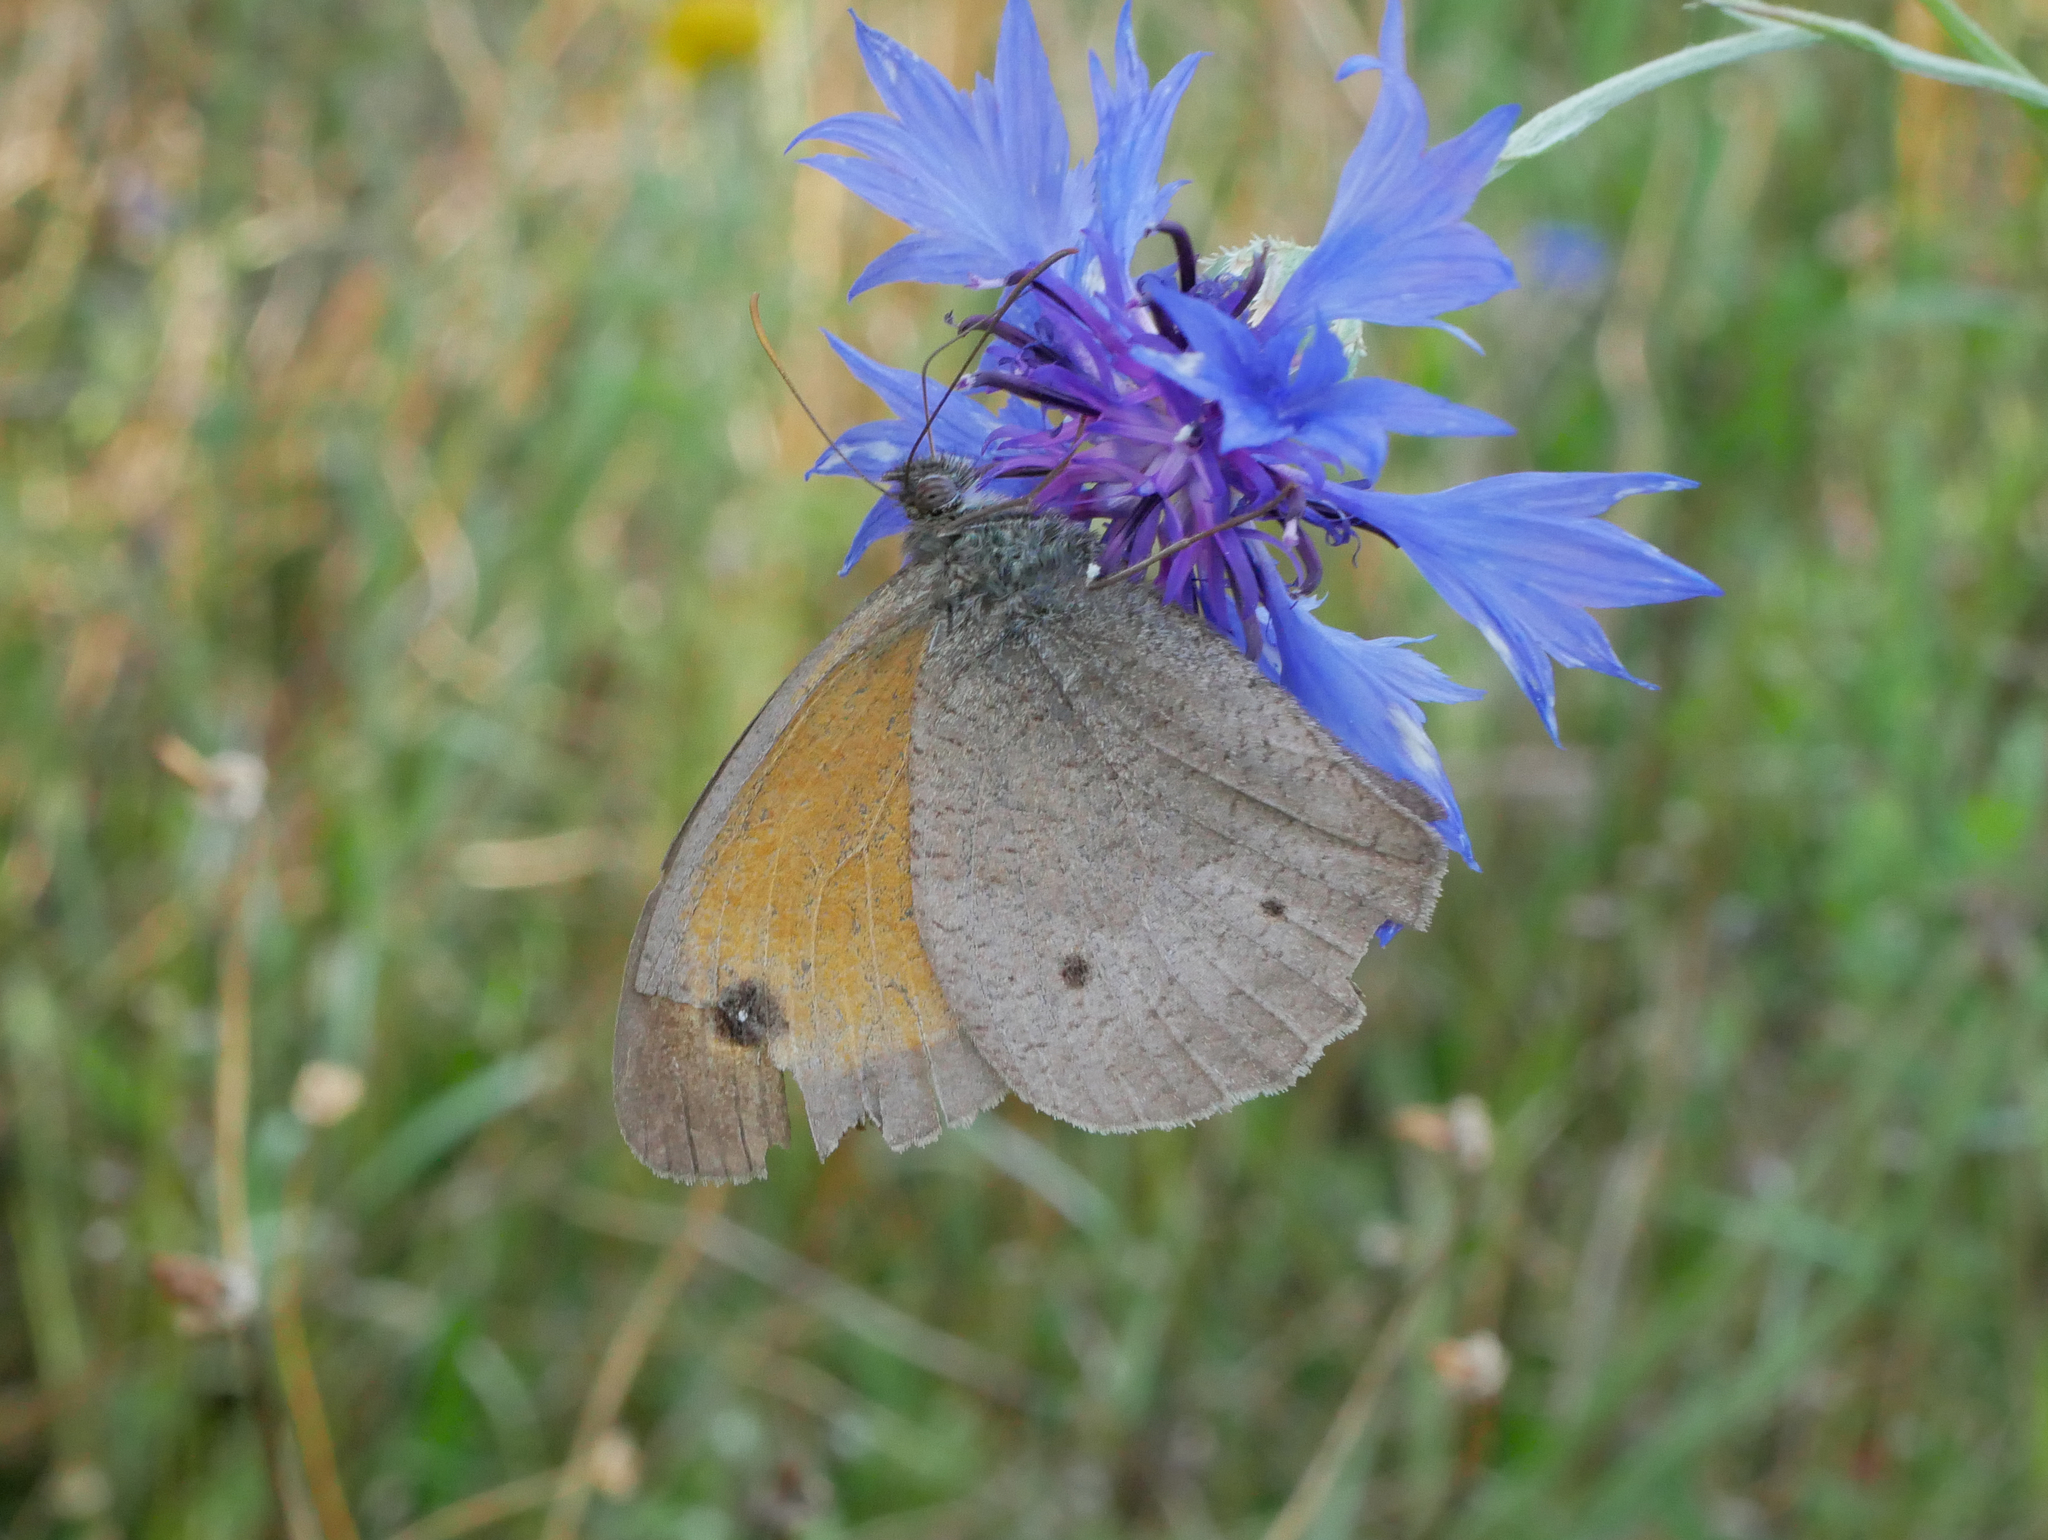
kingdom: Animalia
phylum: Arthropoda
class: Insecta
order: Lepidoptera
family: Nymphalidae
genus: Maniola
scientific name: Maniola jurtina
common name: Meadow brown
